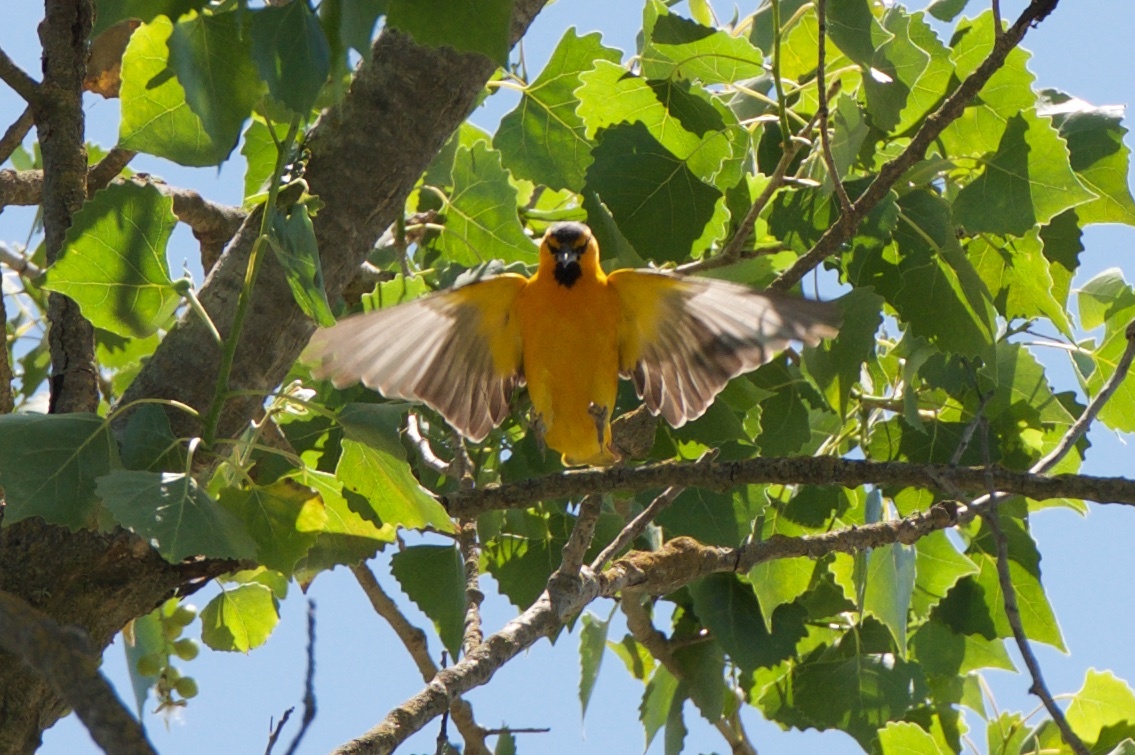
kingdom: Animalia
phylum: Chordata
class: Aves
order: Passeriformes
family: Icteridae
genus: Icterus
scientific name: Icterus bullockii
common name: Bullock's oriole
